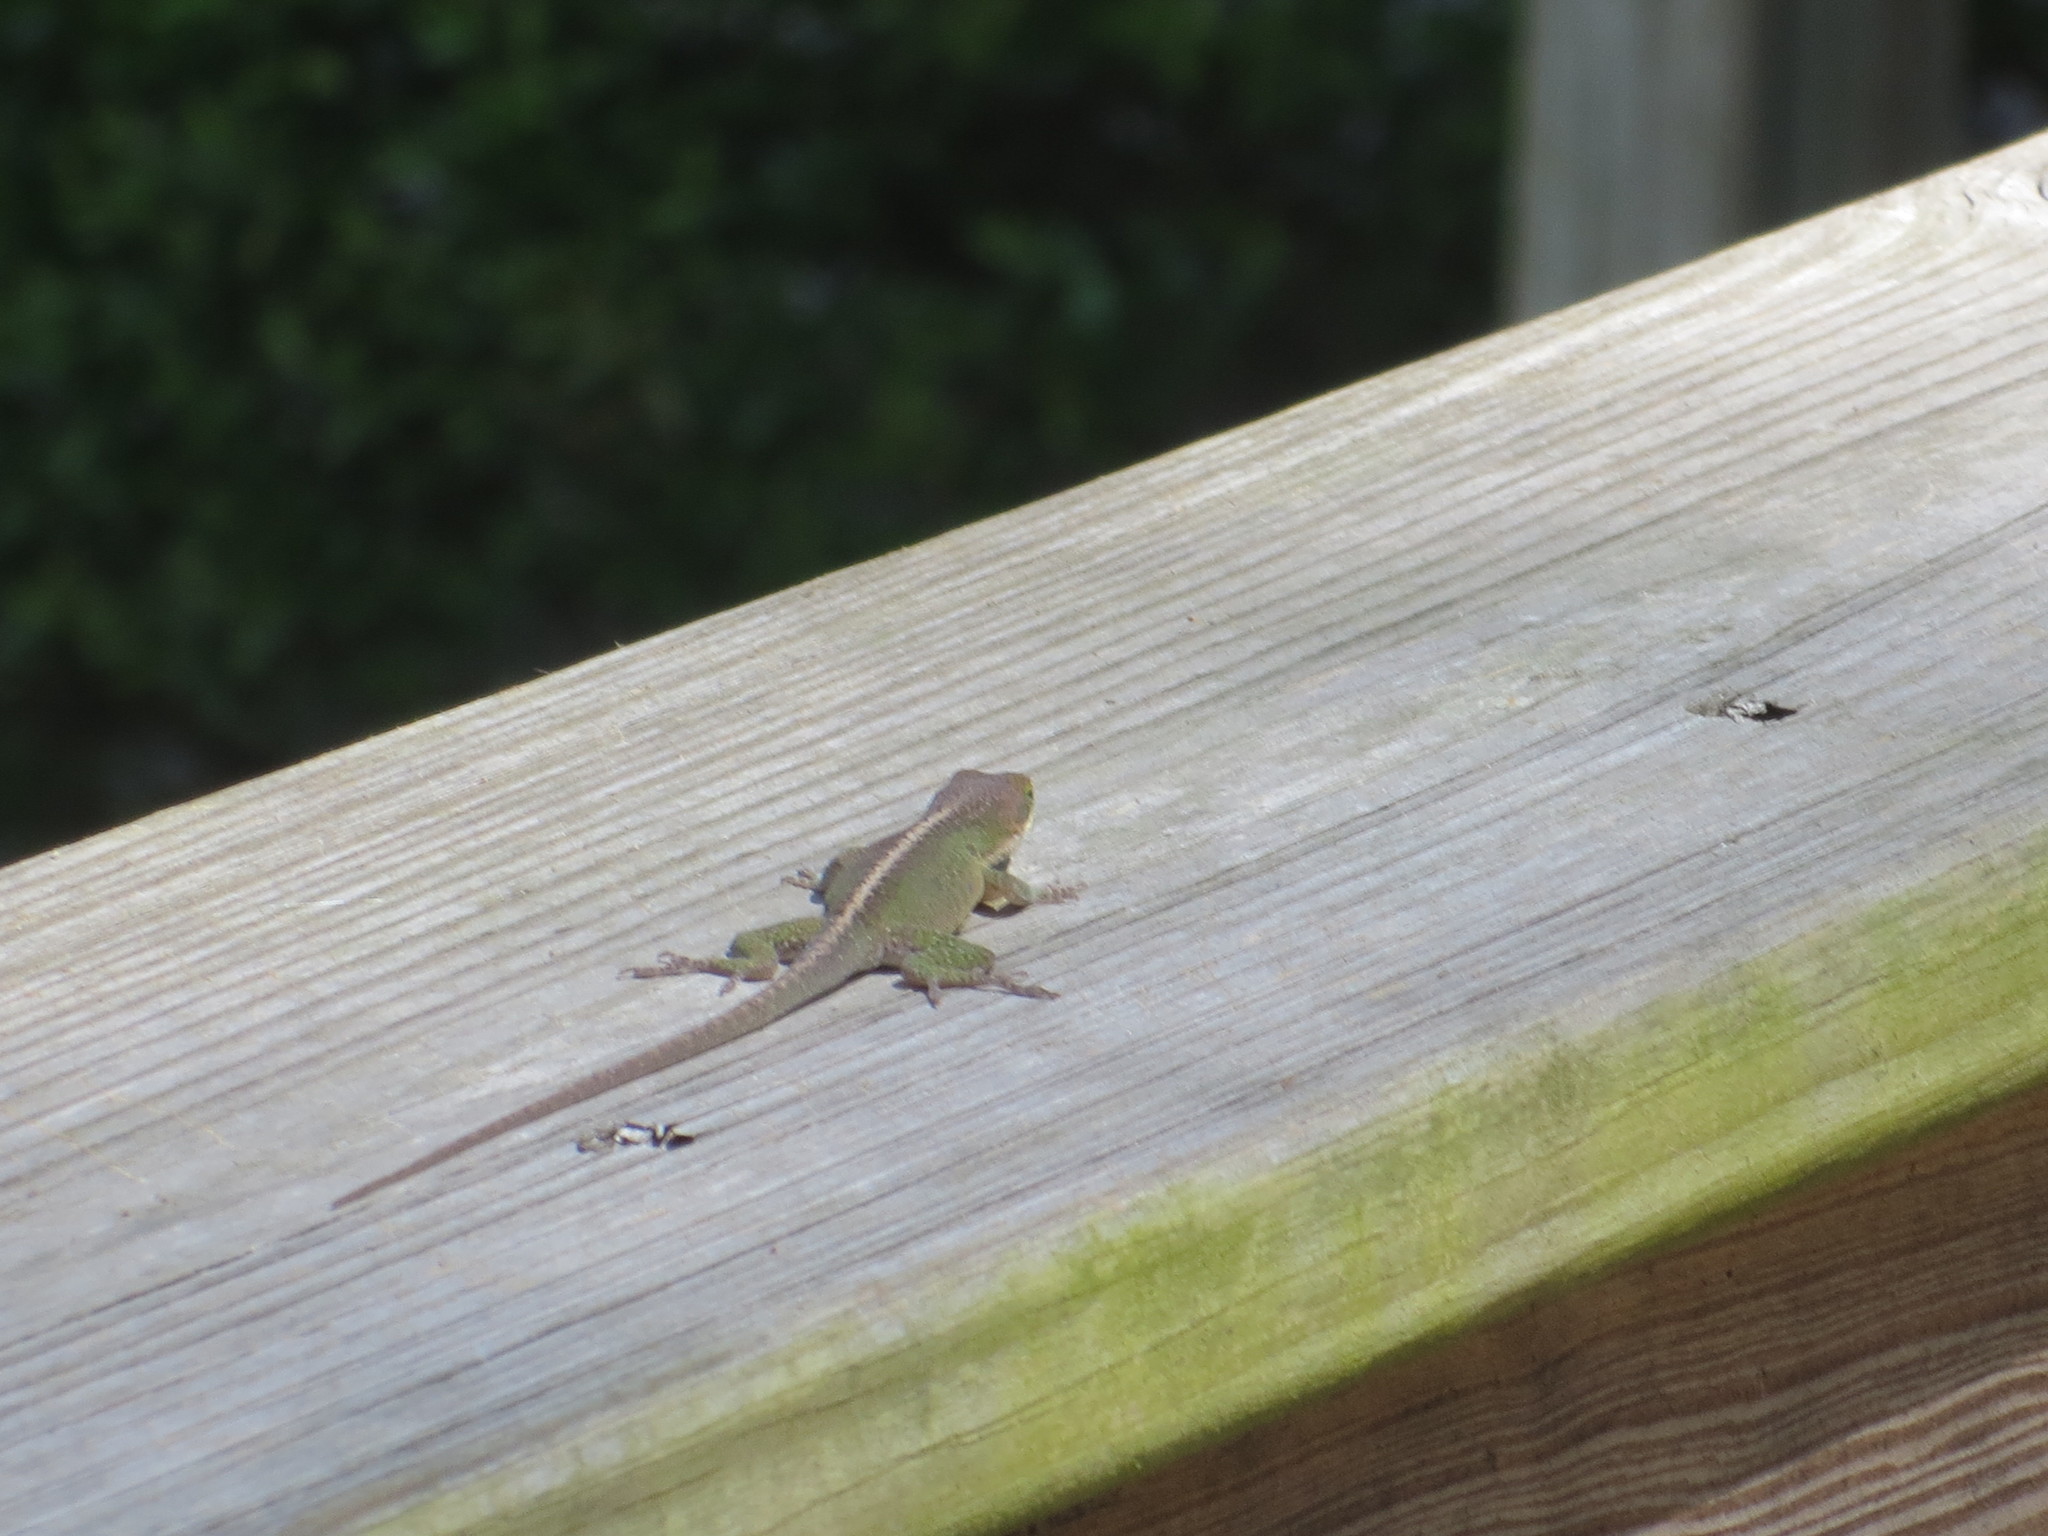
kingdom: Animalia
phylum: Chordata
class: Squamata
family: Dactyloidae
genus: Anolis
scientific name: Anolis carolinensis
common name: Green anole
